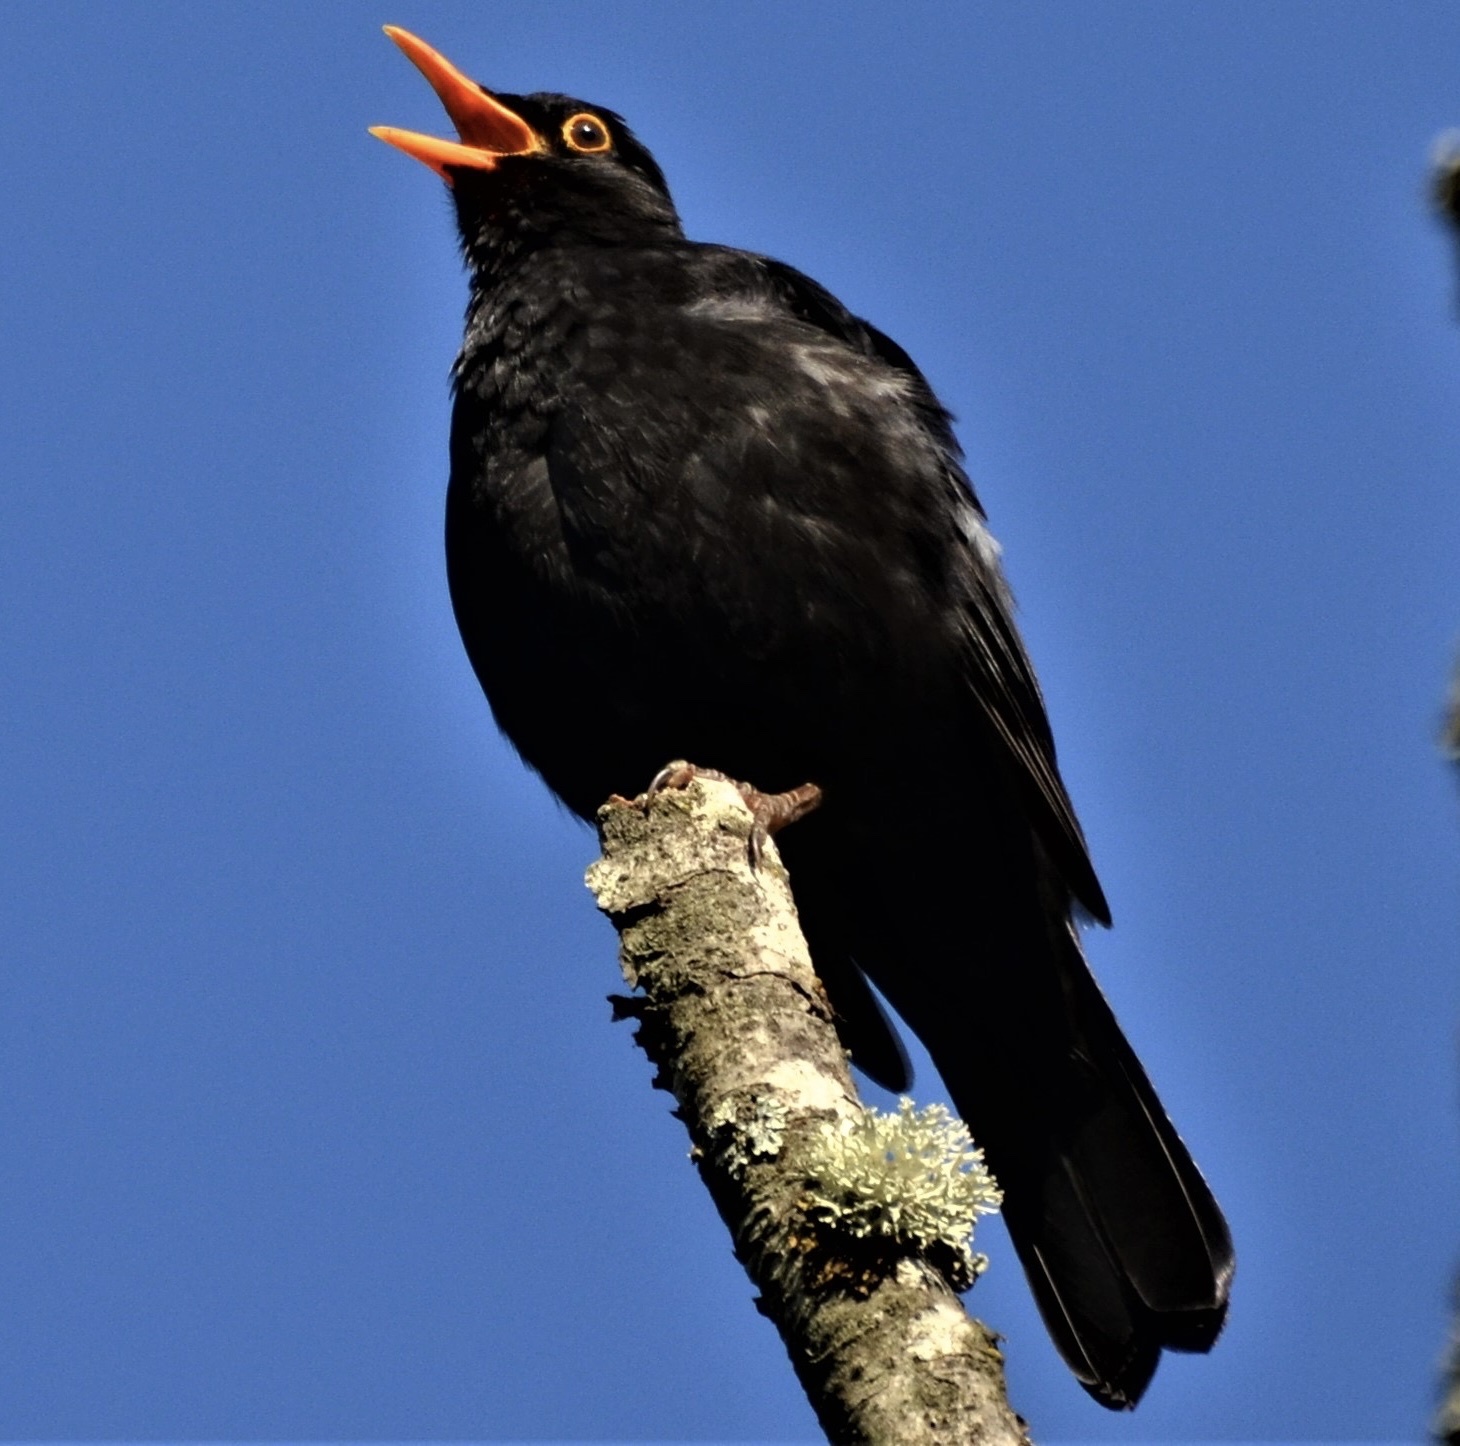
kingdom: Animalia
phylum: Chordata
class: Aves
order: Passeriformes
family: Turdidae
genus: Turdus
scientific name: Turdus merula
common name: Common blackbird
